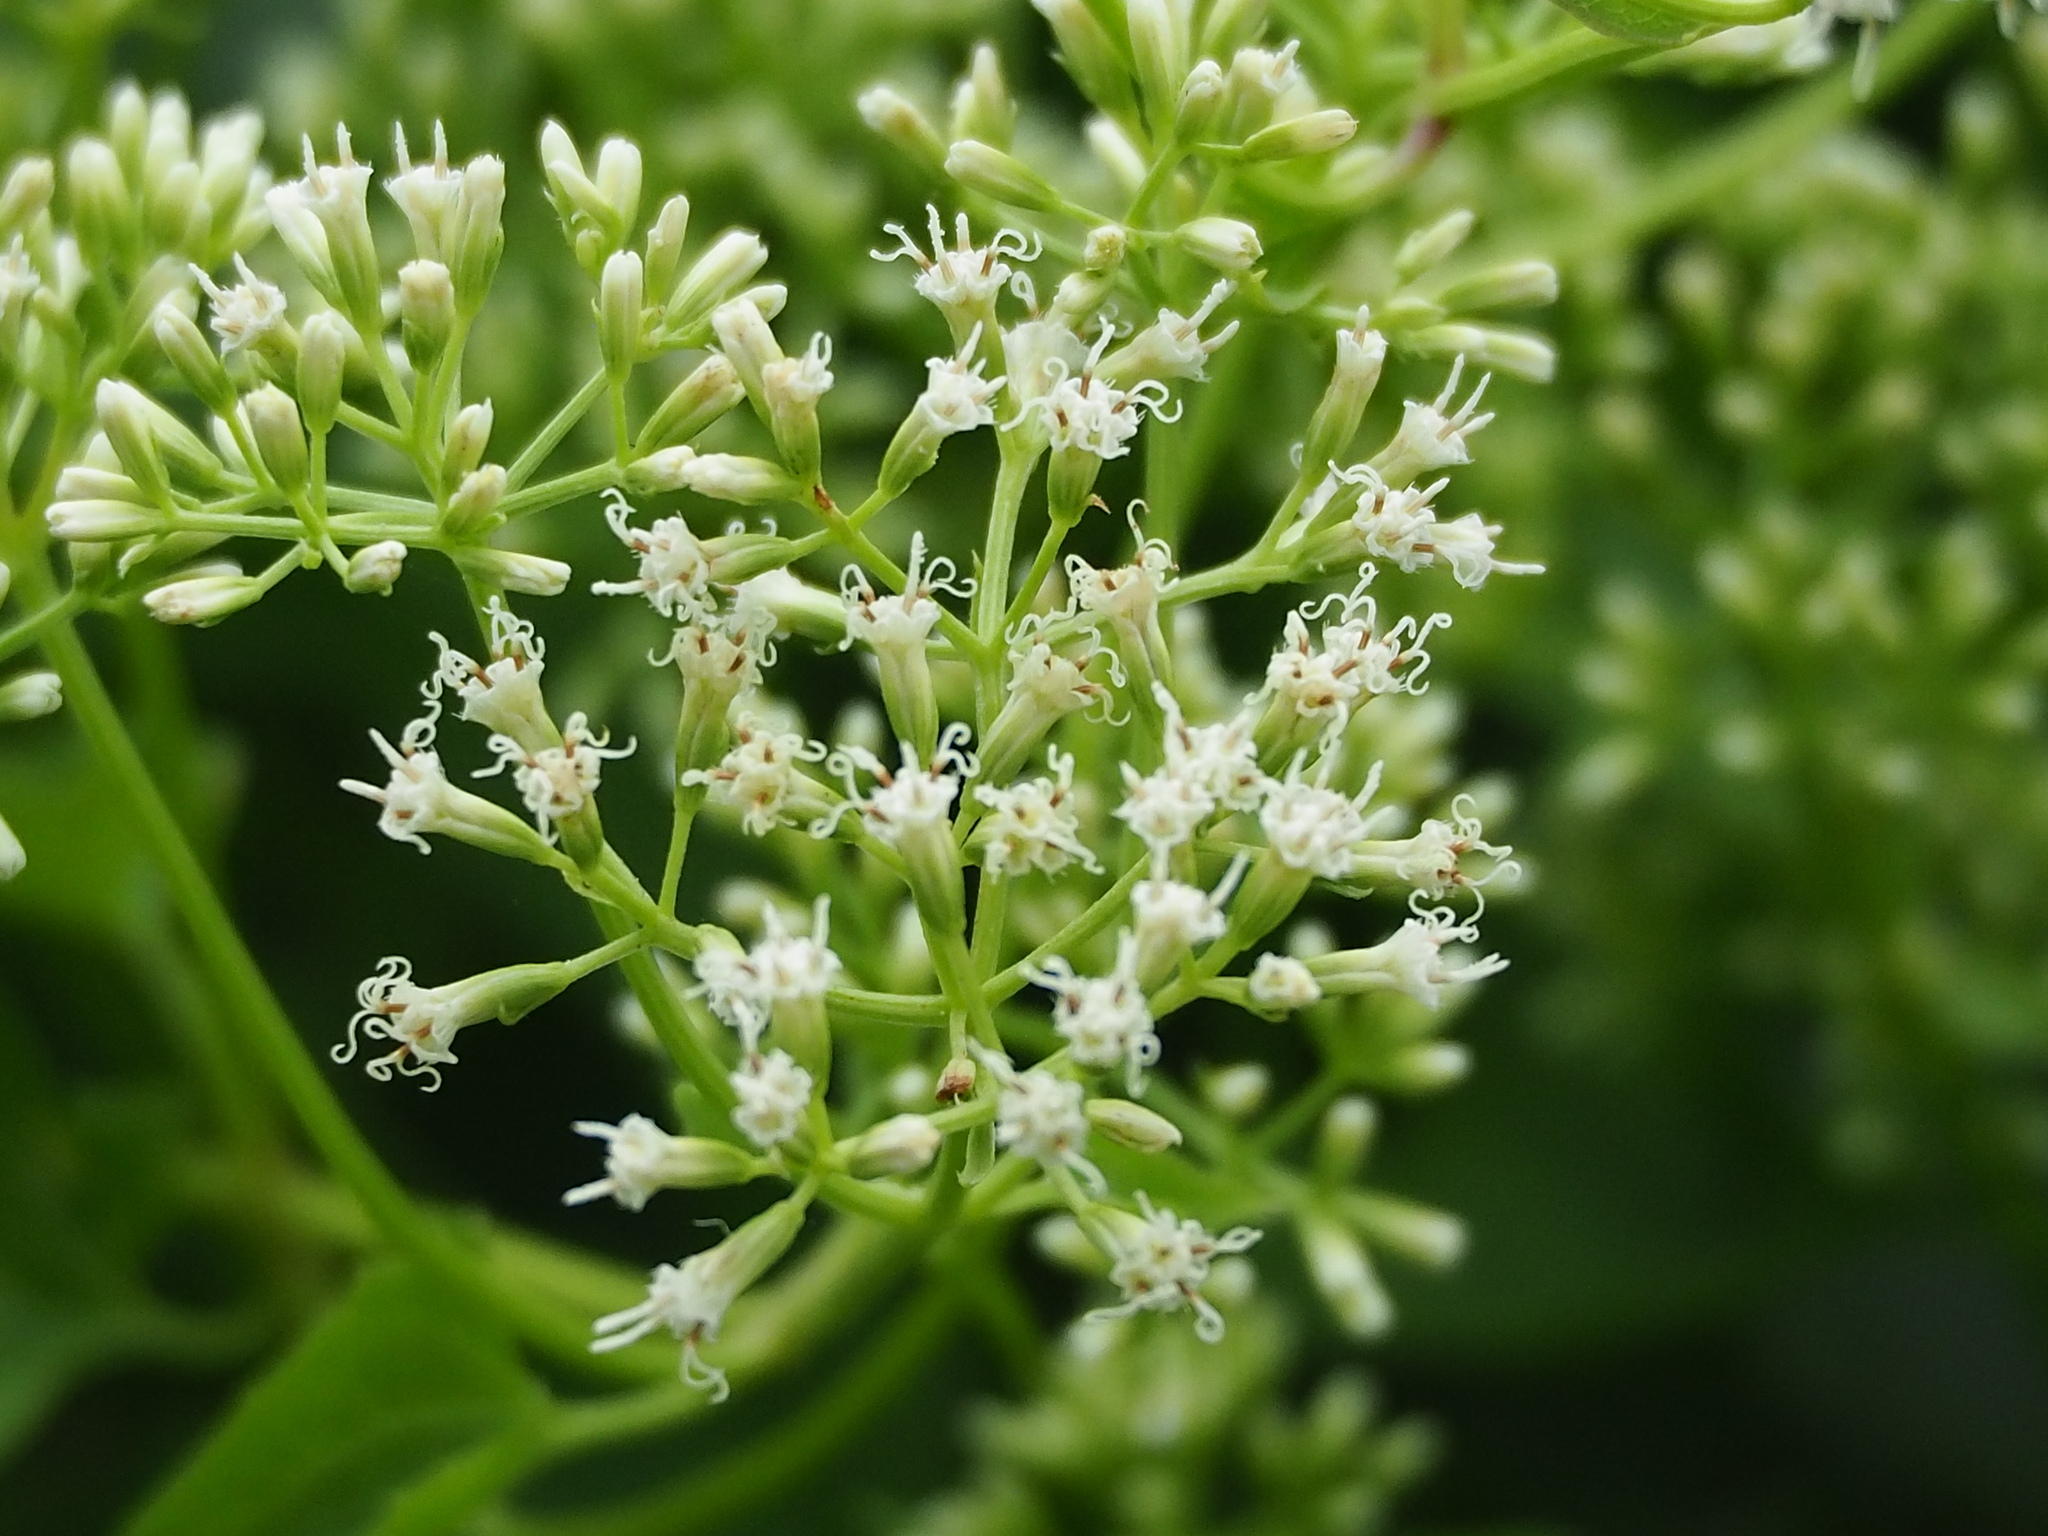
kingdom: Plantae
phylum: Tracheophyta
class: Magnoliopsida
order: Asterales
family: Asteraceae
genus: Mikania
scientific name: Mikania micrantha
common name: Mile-a-minute
